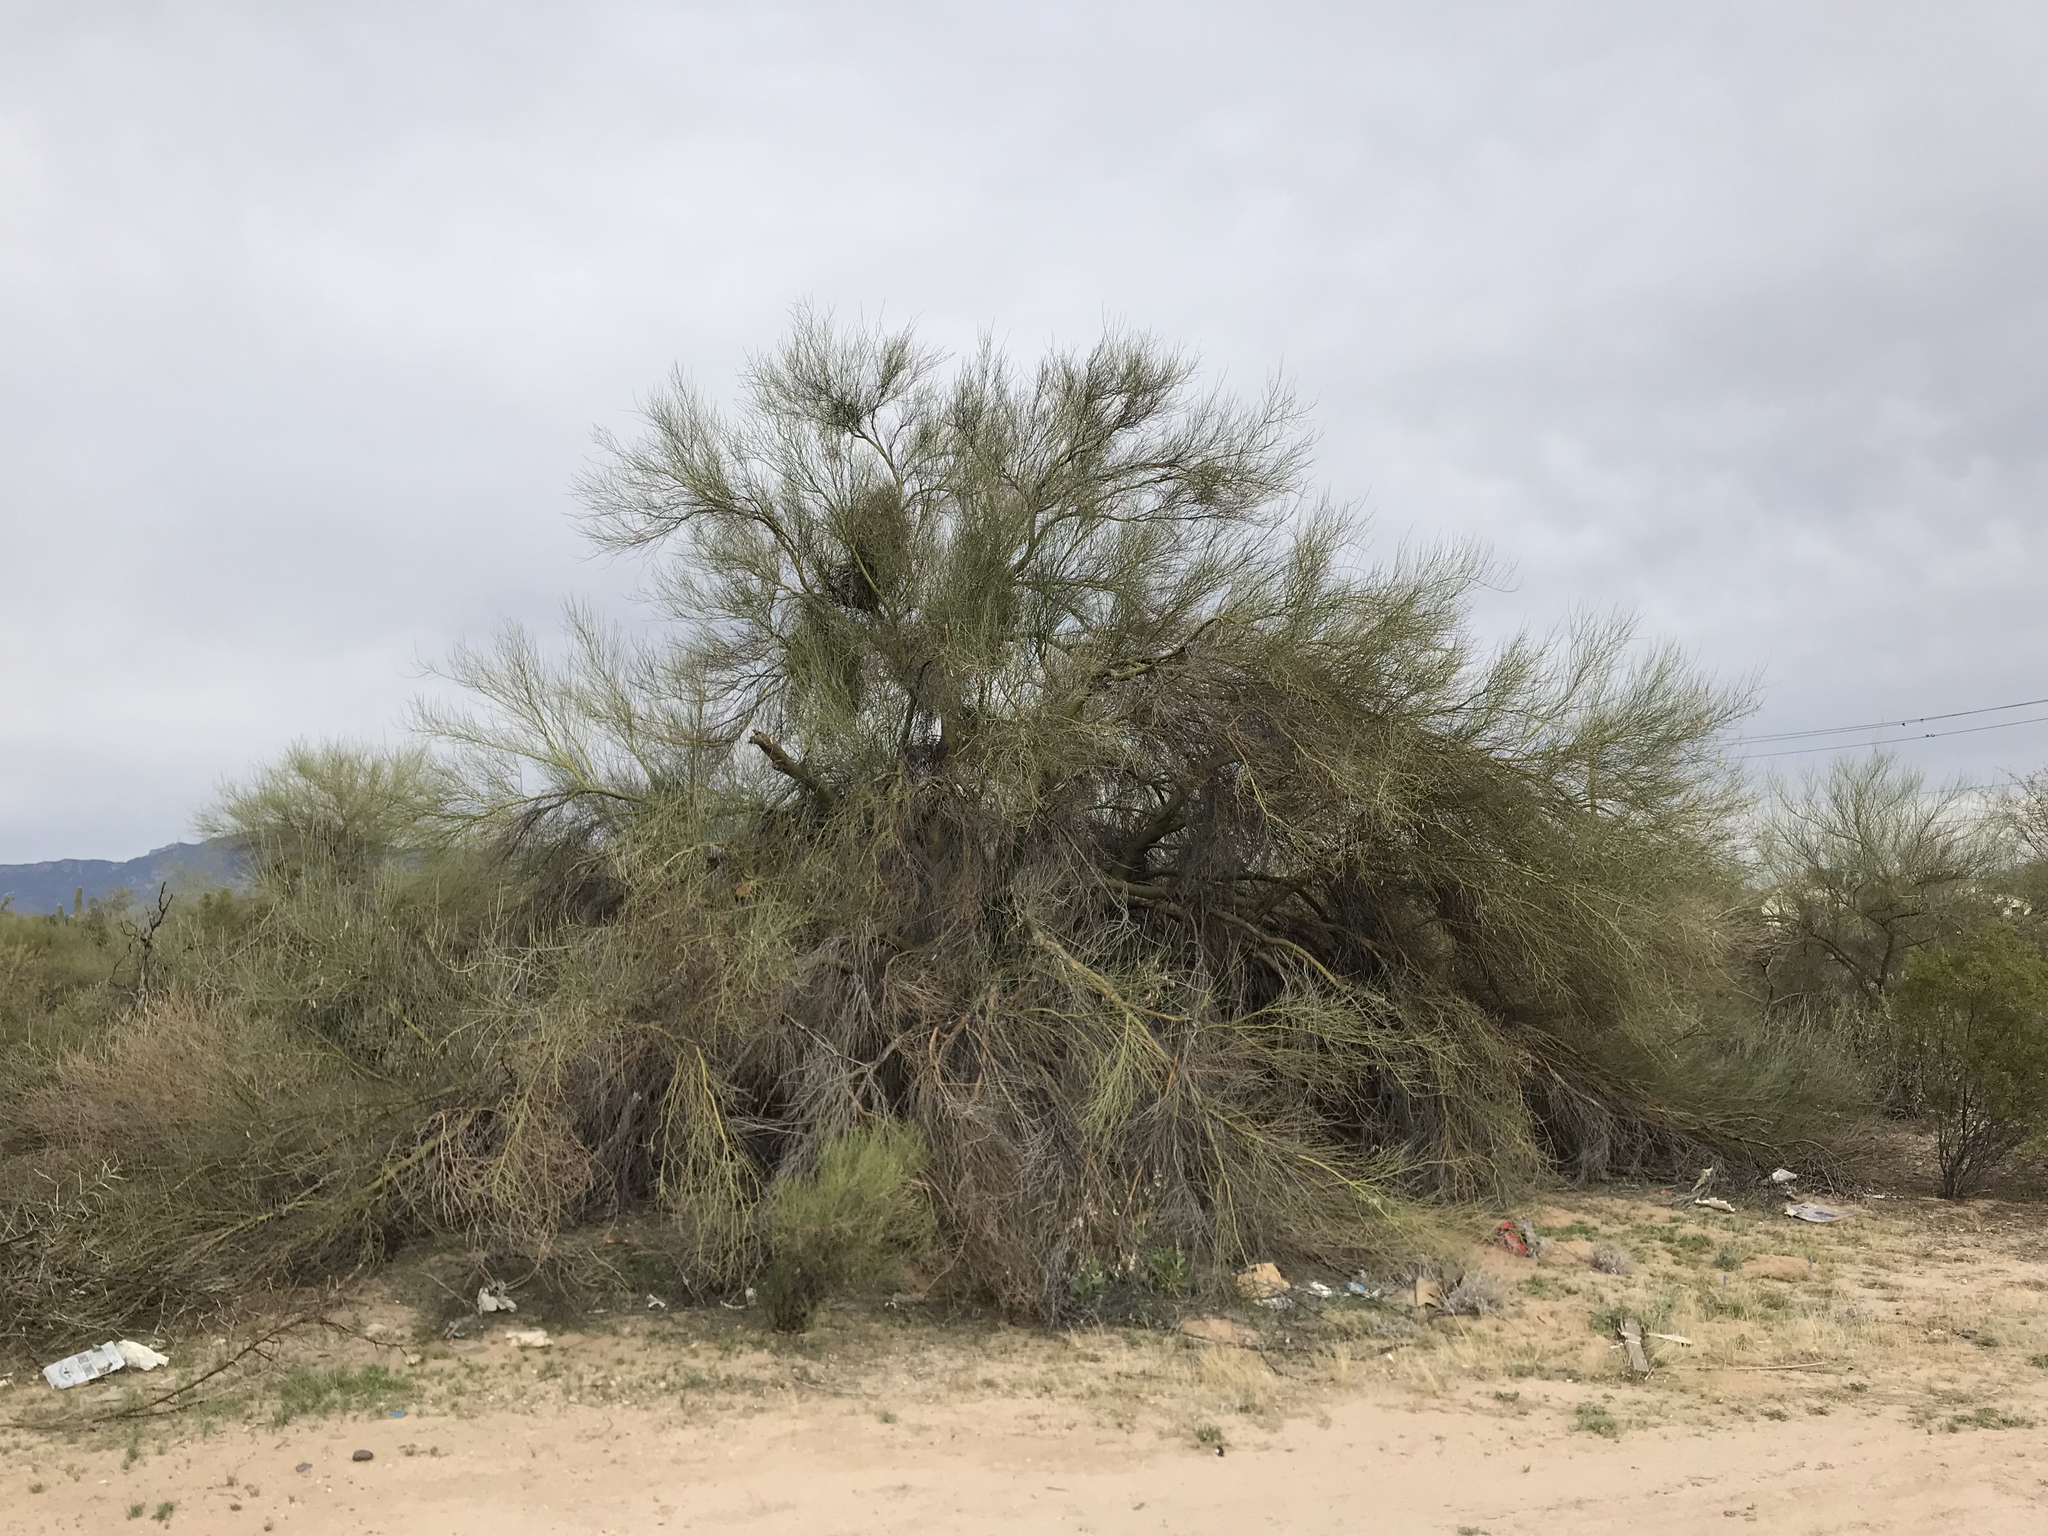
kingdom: Plantae
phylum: Tracheophyta
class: Magnoliopsida
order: Fabales
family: Fabaceae
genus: Parkinsonia
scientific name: Parkinsonia florida
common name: Blue paloverde
